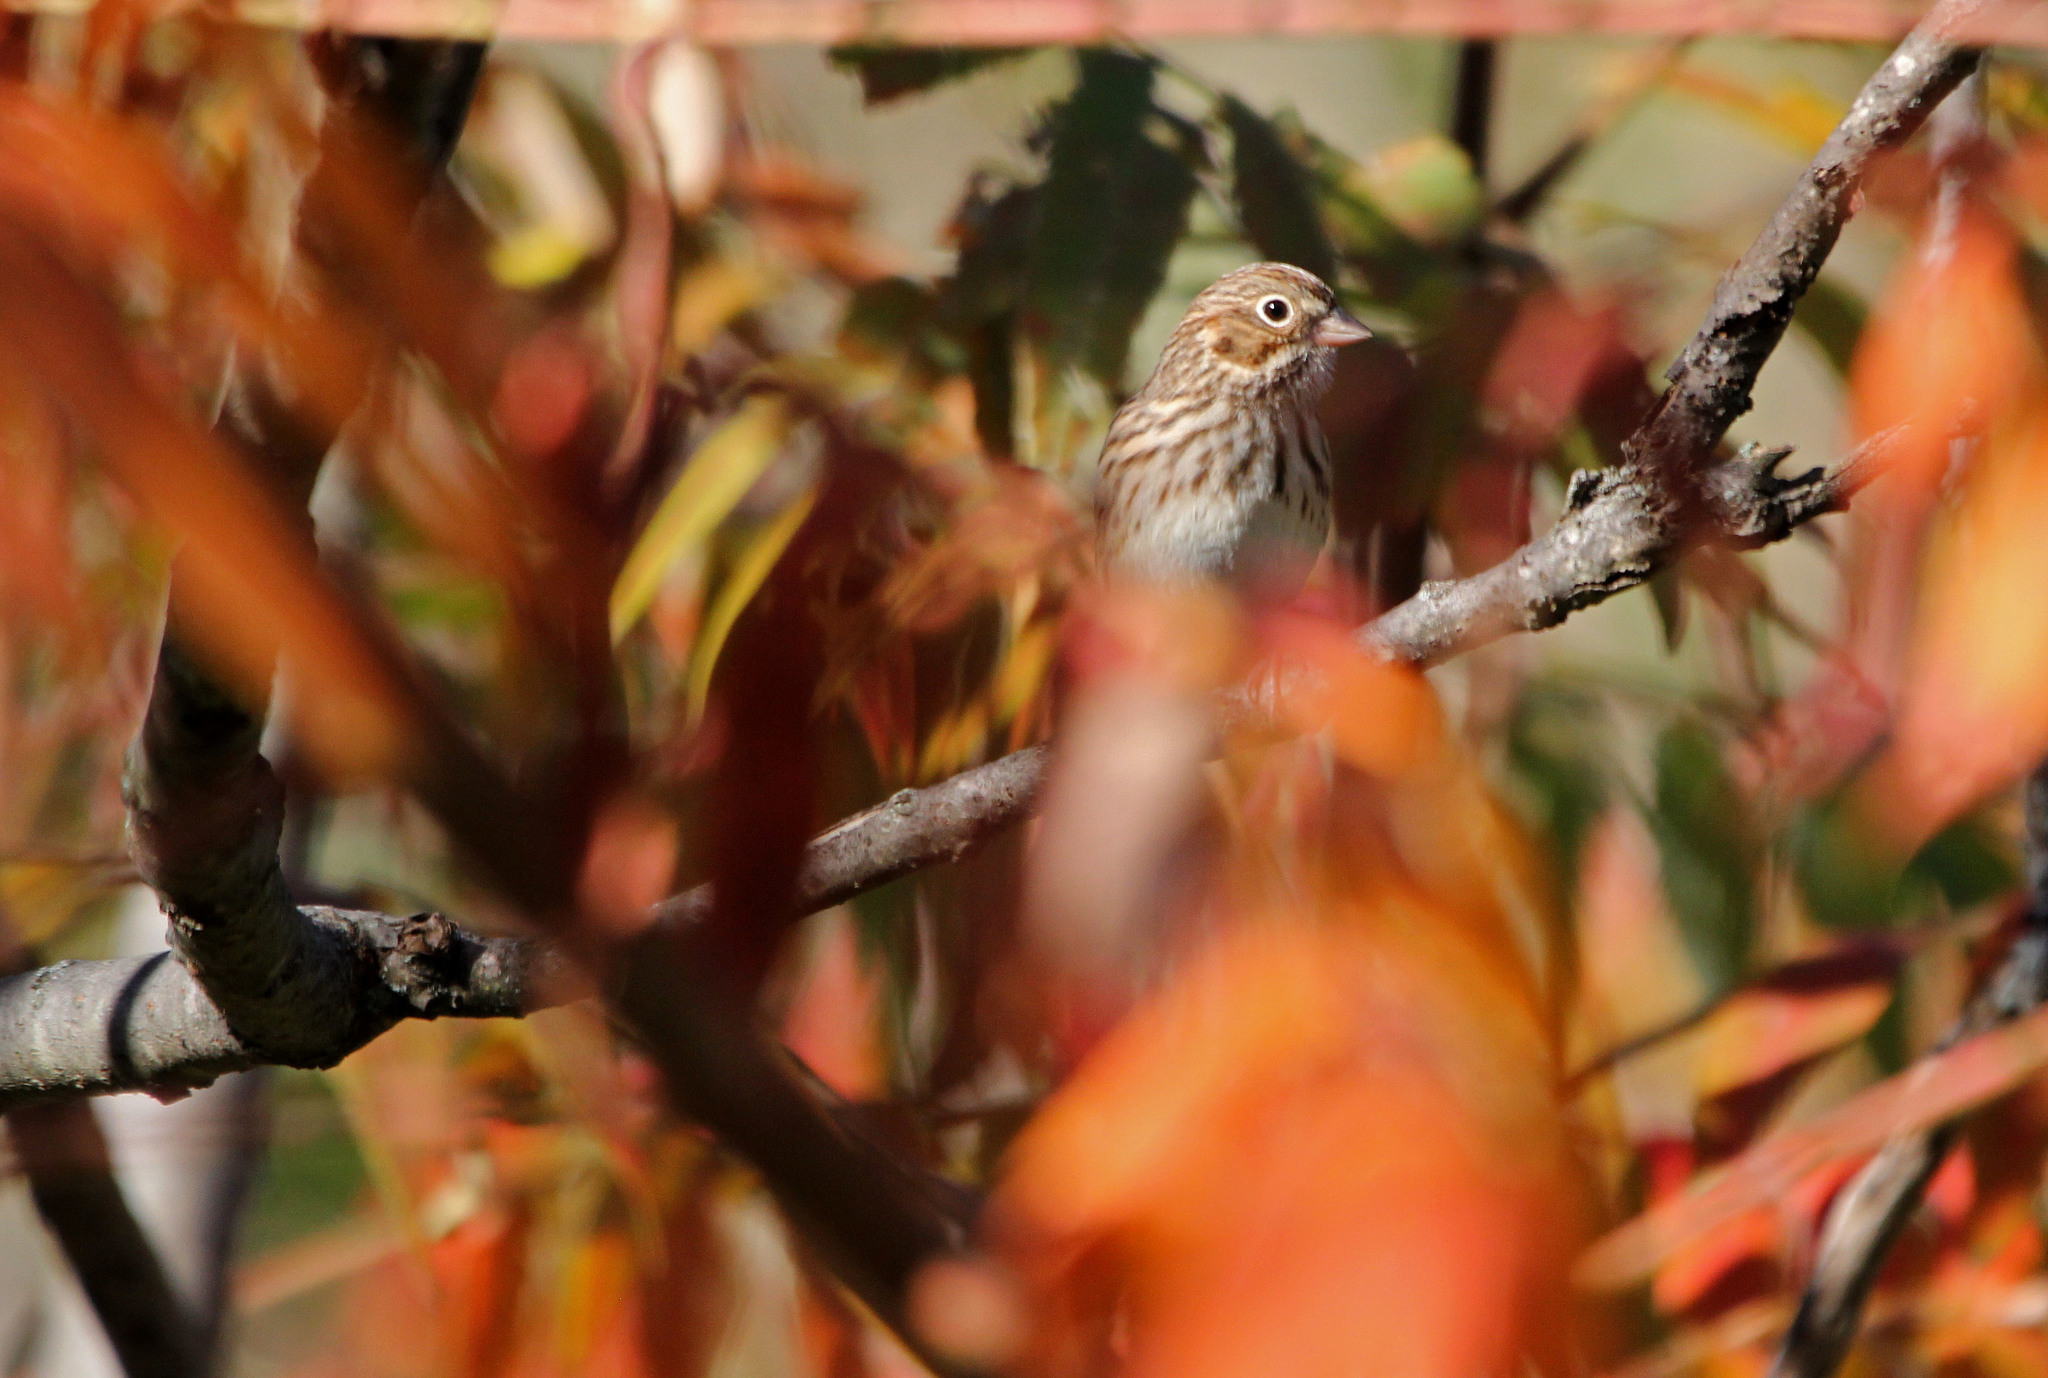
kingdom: Animalia
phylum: Chordata
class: Aves
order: Passeriformes
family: Passerellidae
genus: Pooecetes
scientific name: Pooecetes gramineus
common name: Vesper sparrow
